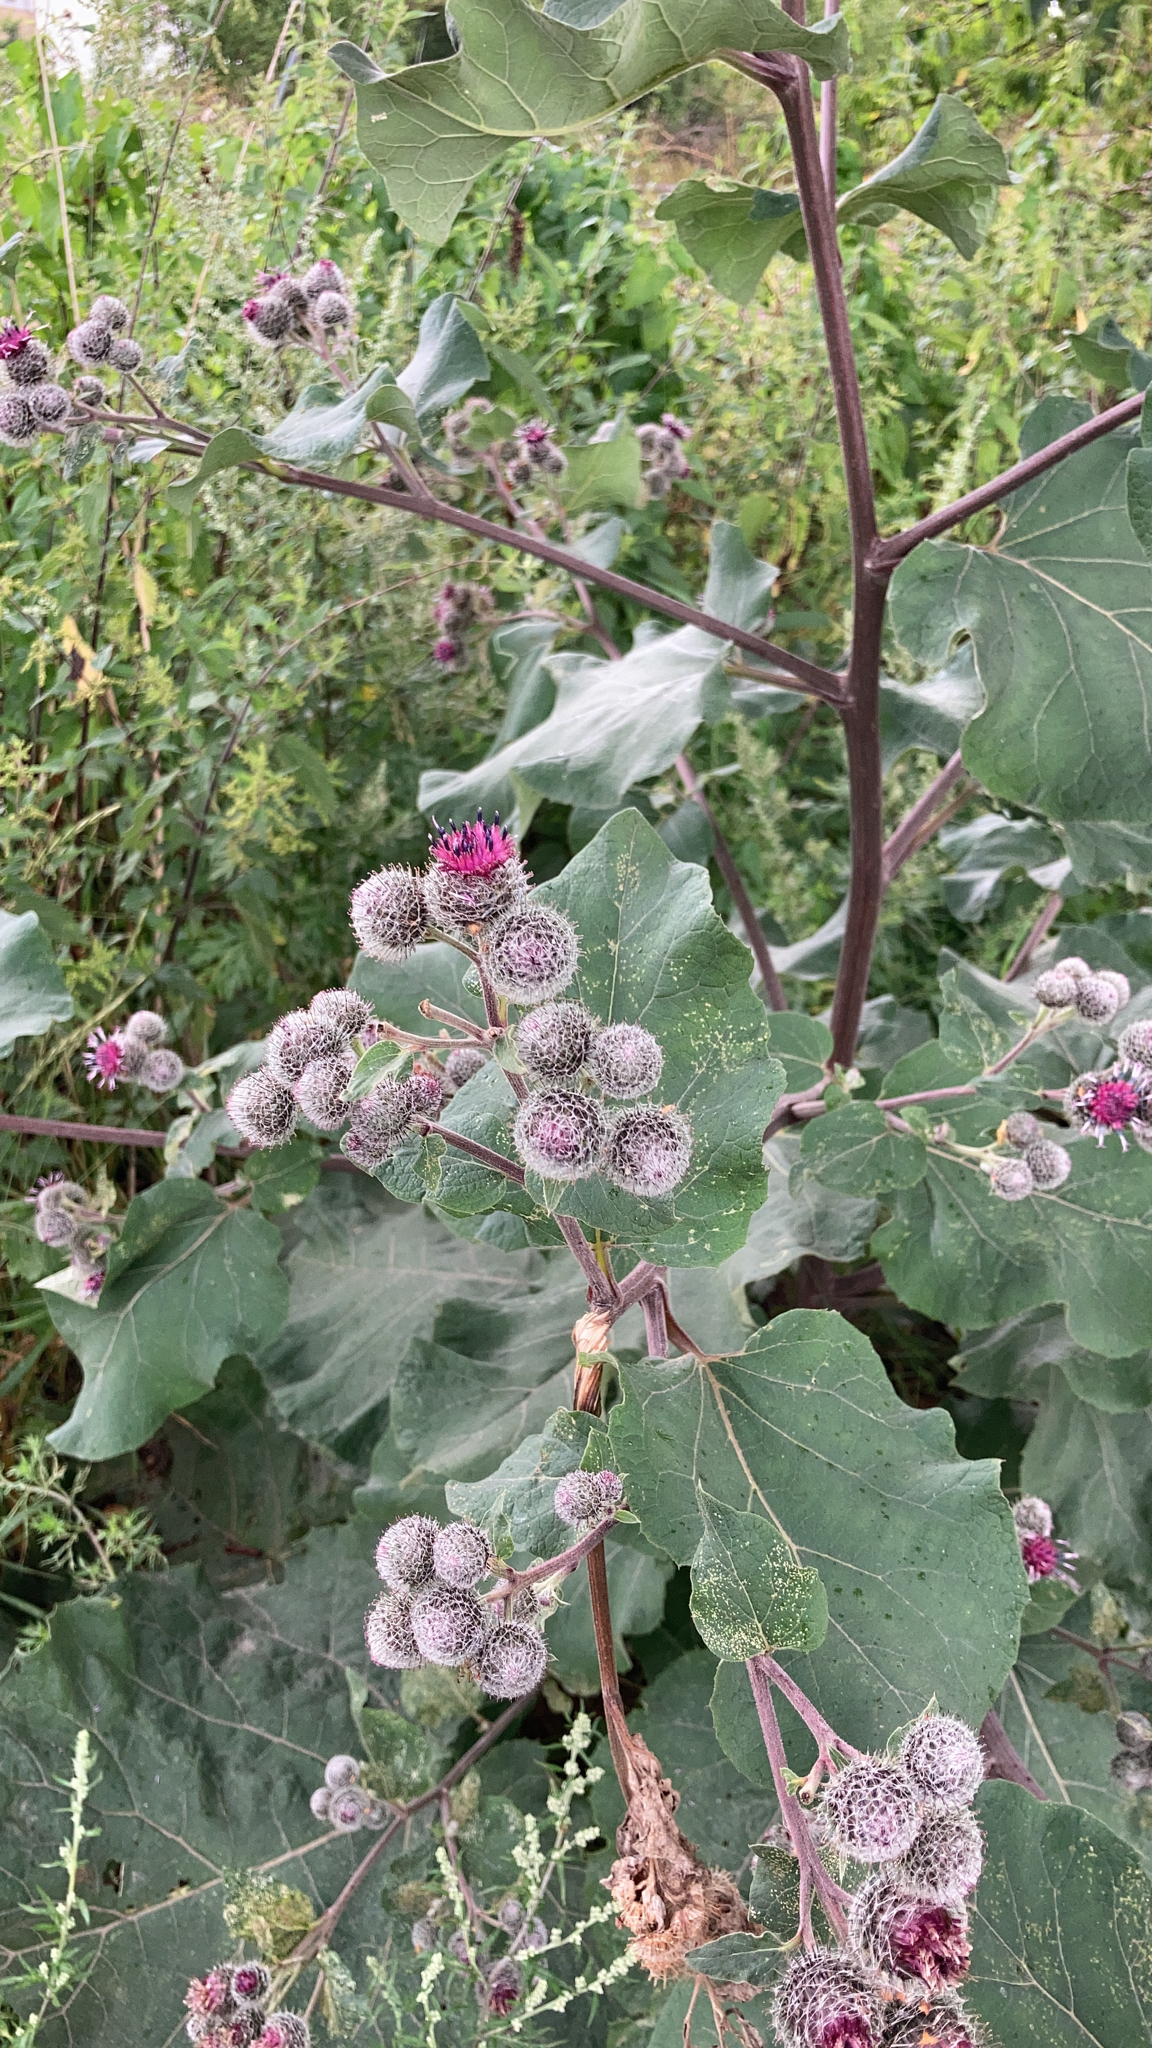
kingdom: Plantae
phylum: Tracheophyta
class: Magnoliopsida
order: Asterales
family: Asteraceae
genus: Arctium
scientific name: Arctium tomentosum
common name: Woolly burdock
